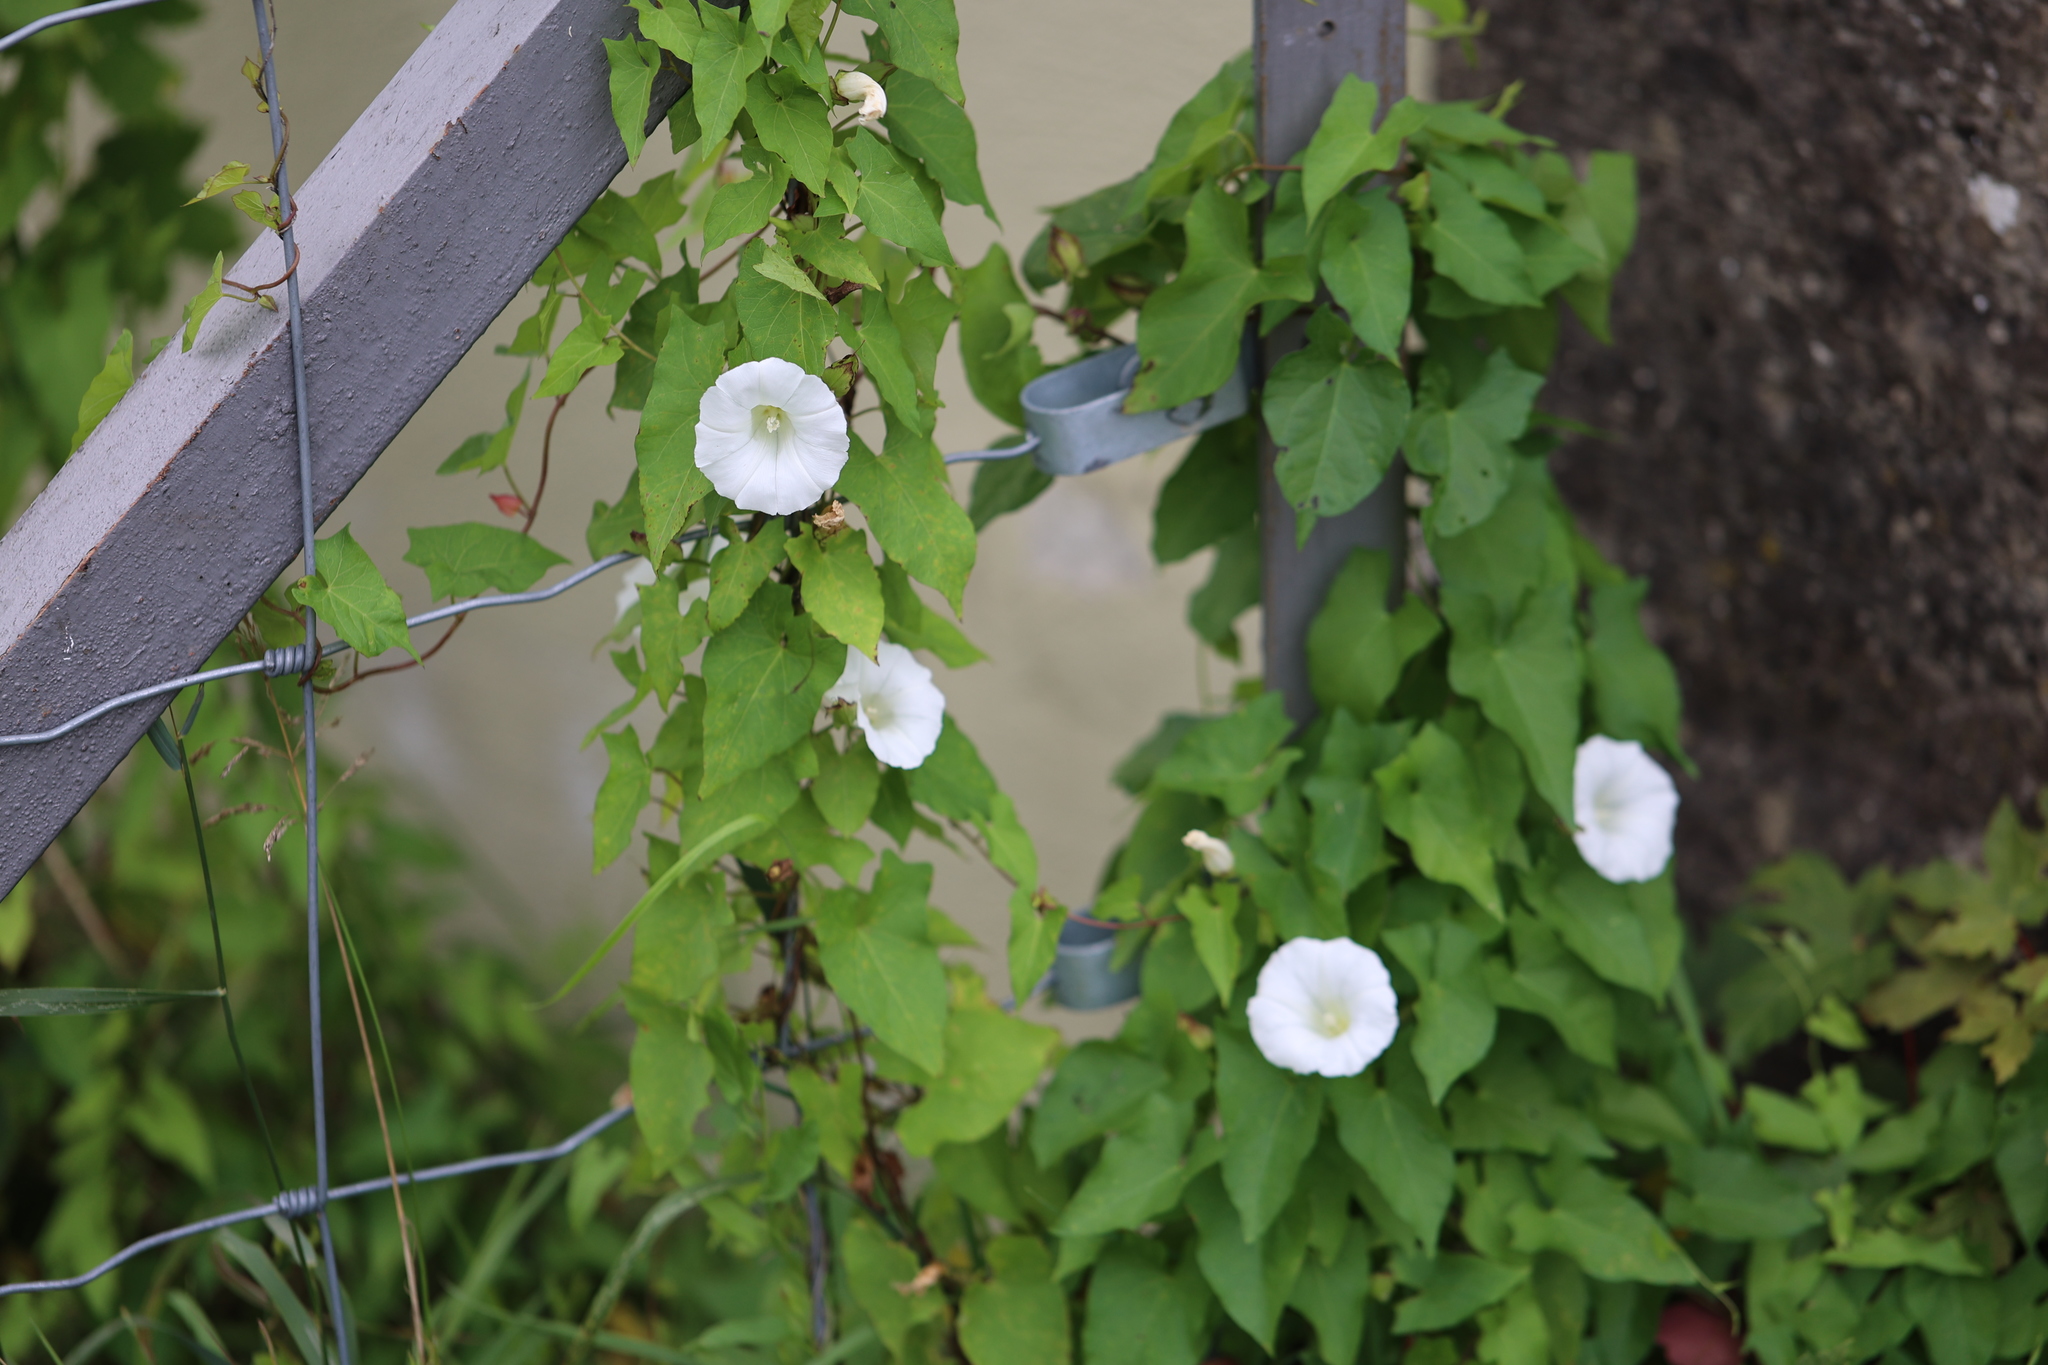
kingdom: Plantae
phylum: Tracheophyta
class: Magnoliopsida
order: Solanales
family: Convolvulaceae
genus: Calystegia
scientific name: Calystegia sepium
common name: Hedge bindweed
